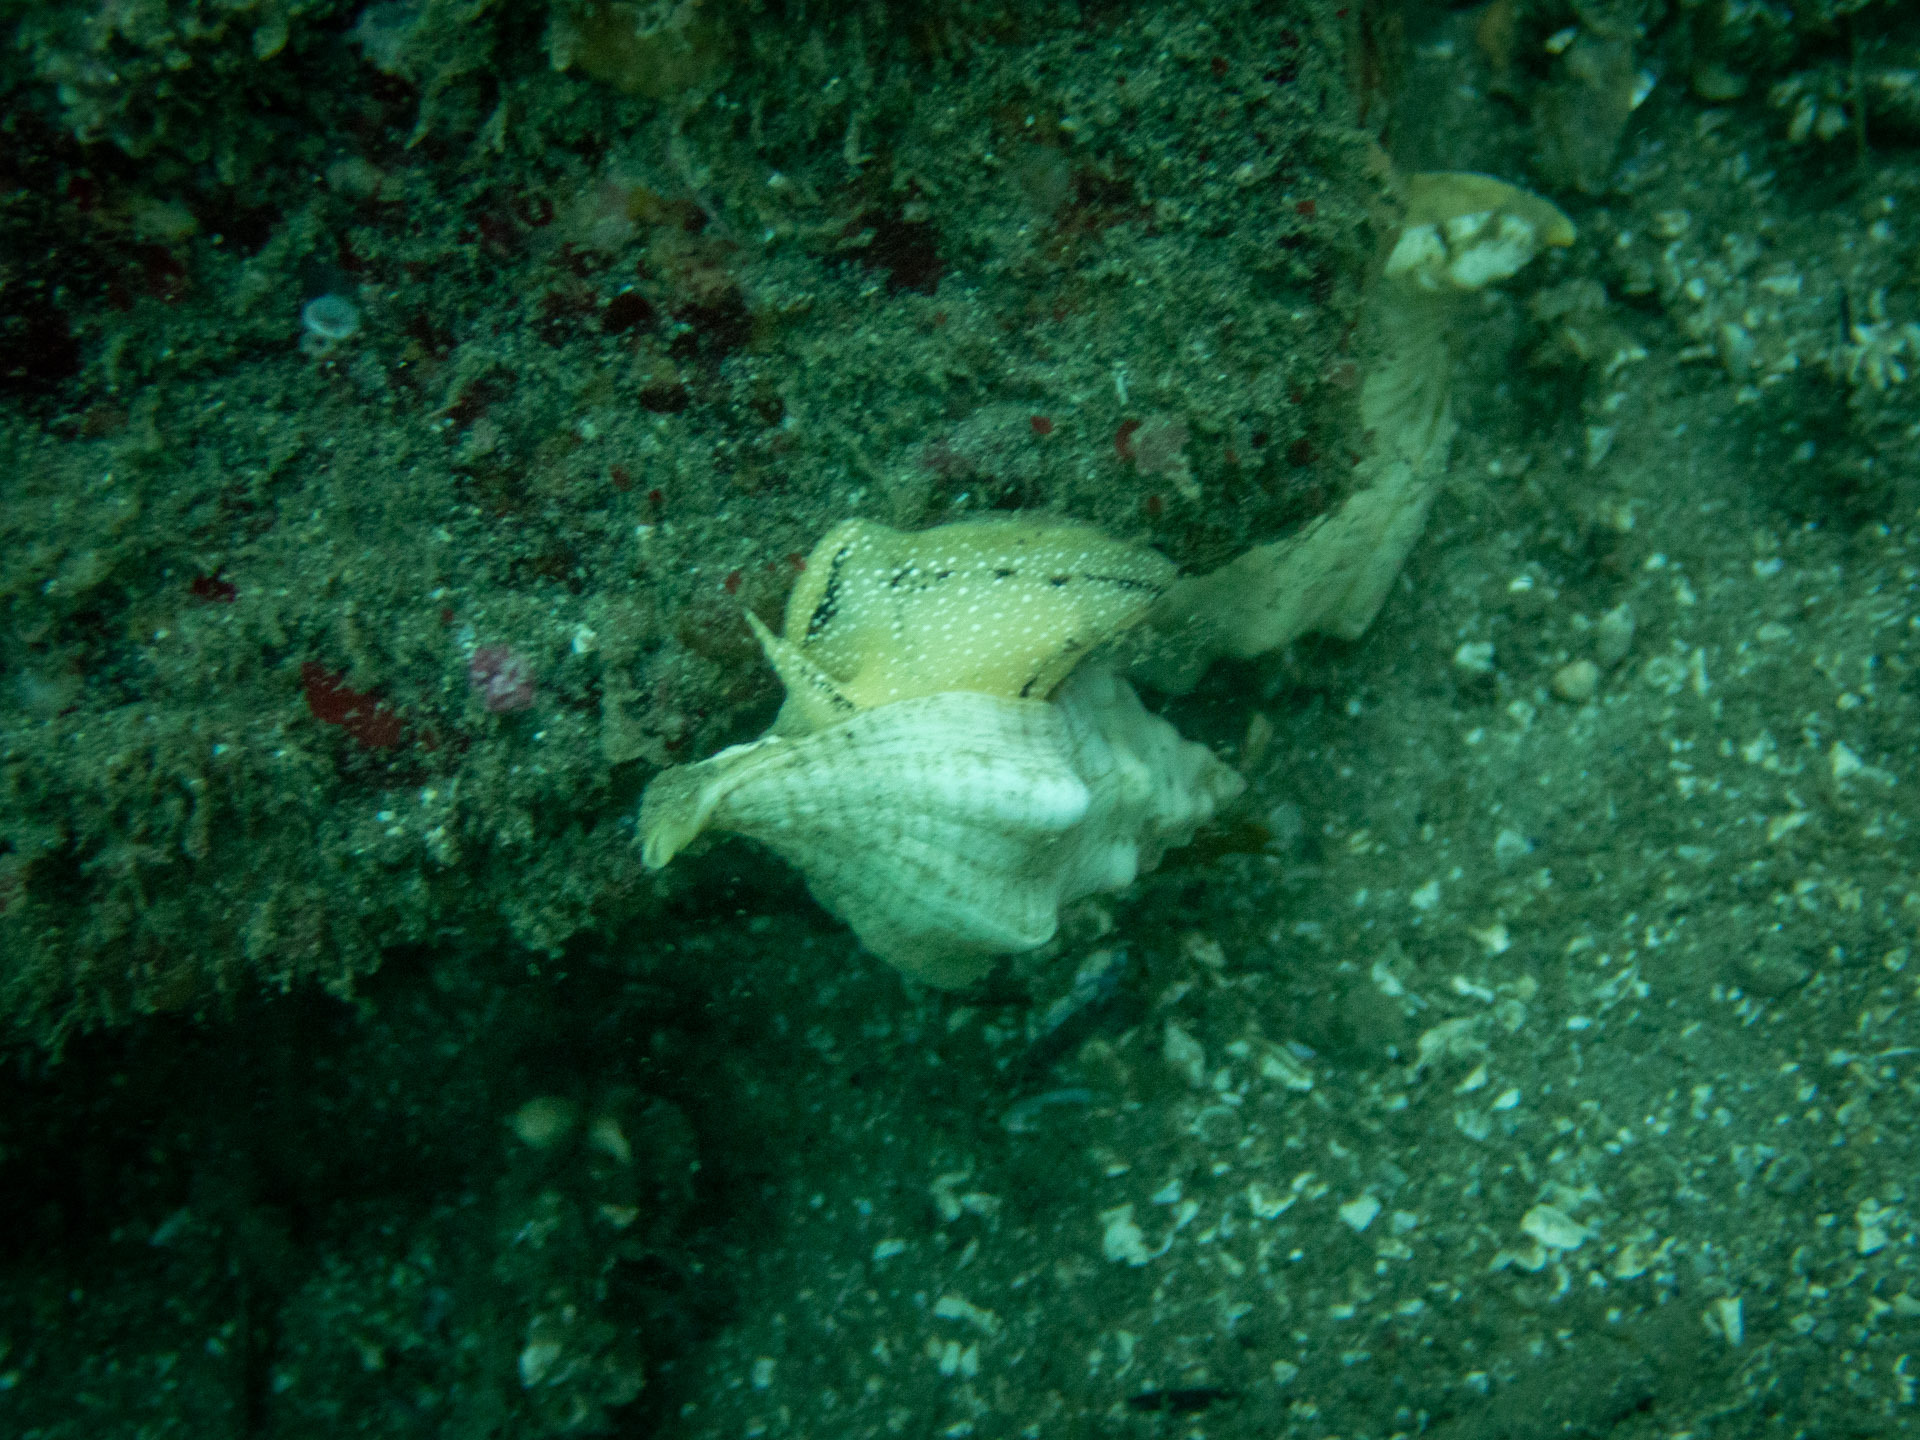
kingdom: Animalia
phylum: Mollusca
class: Gastropoda
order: Neogastropoda
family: Austrosiphonidae
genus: Kelletia
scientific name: Kelletia kelletii
